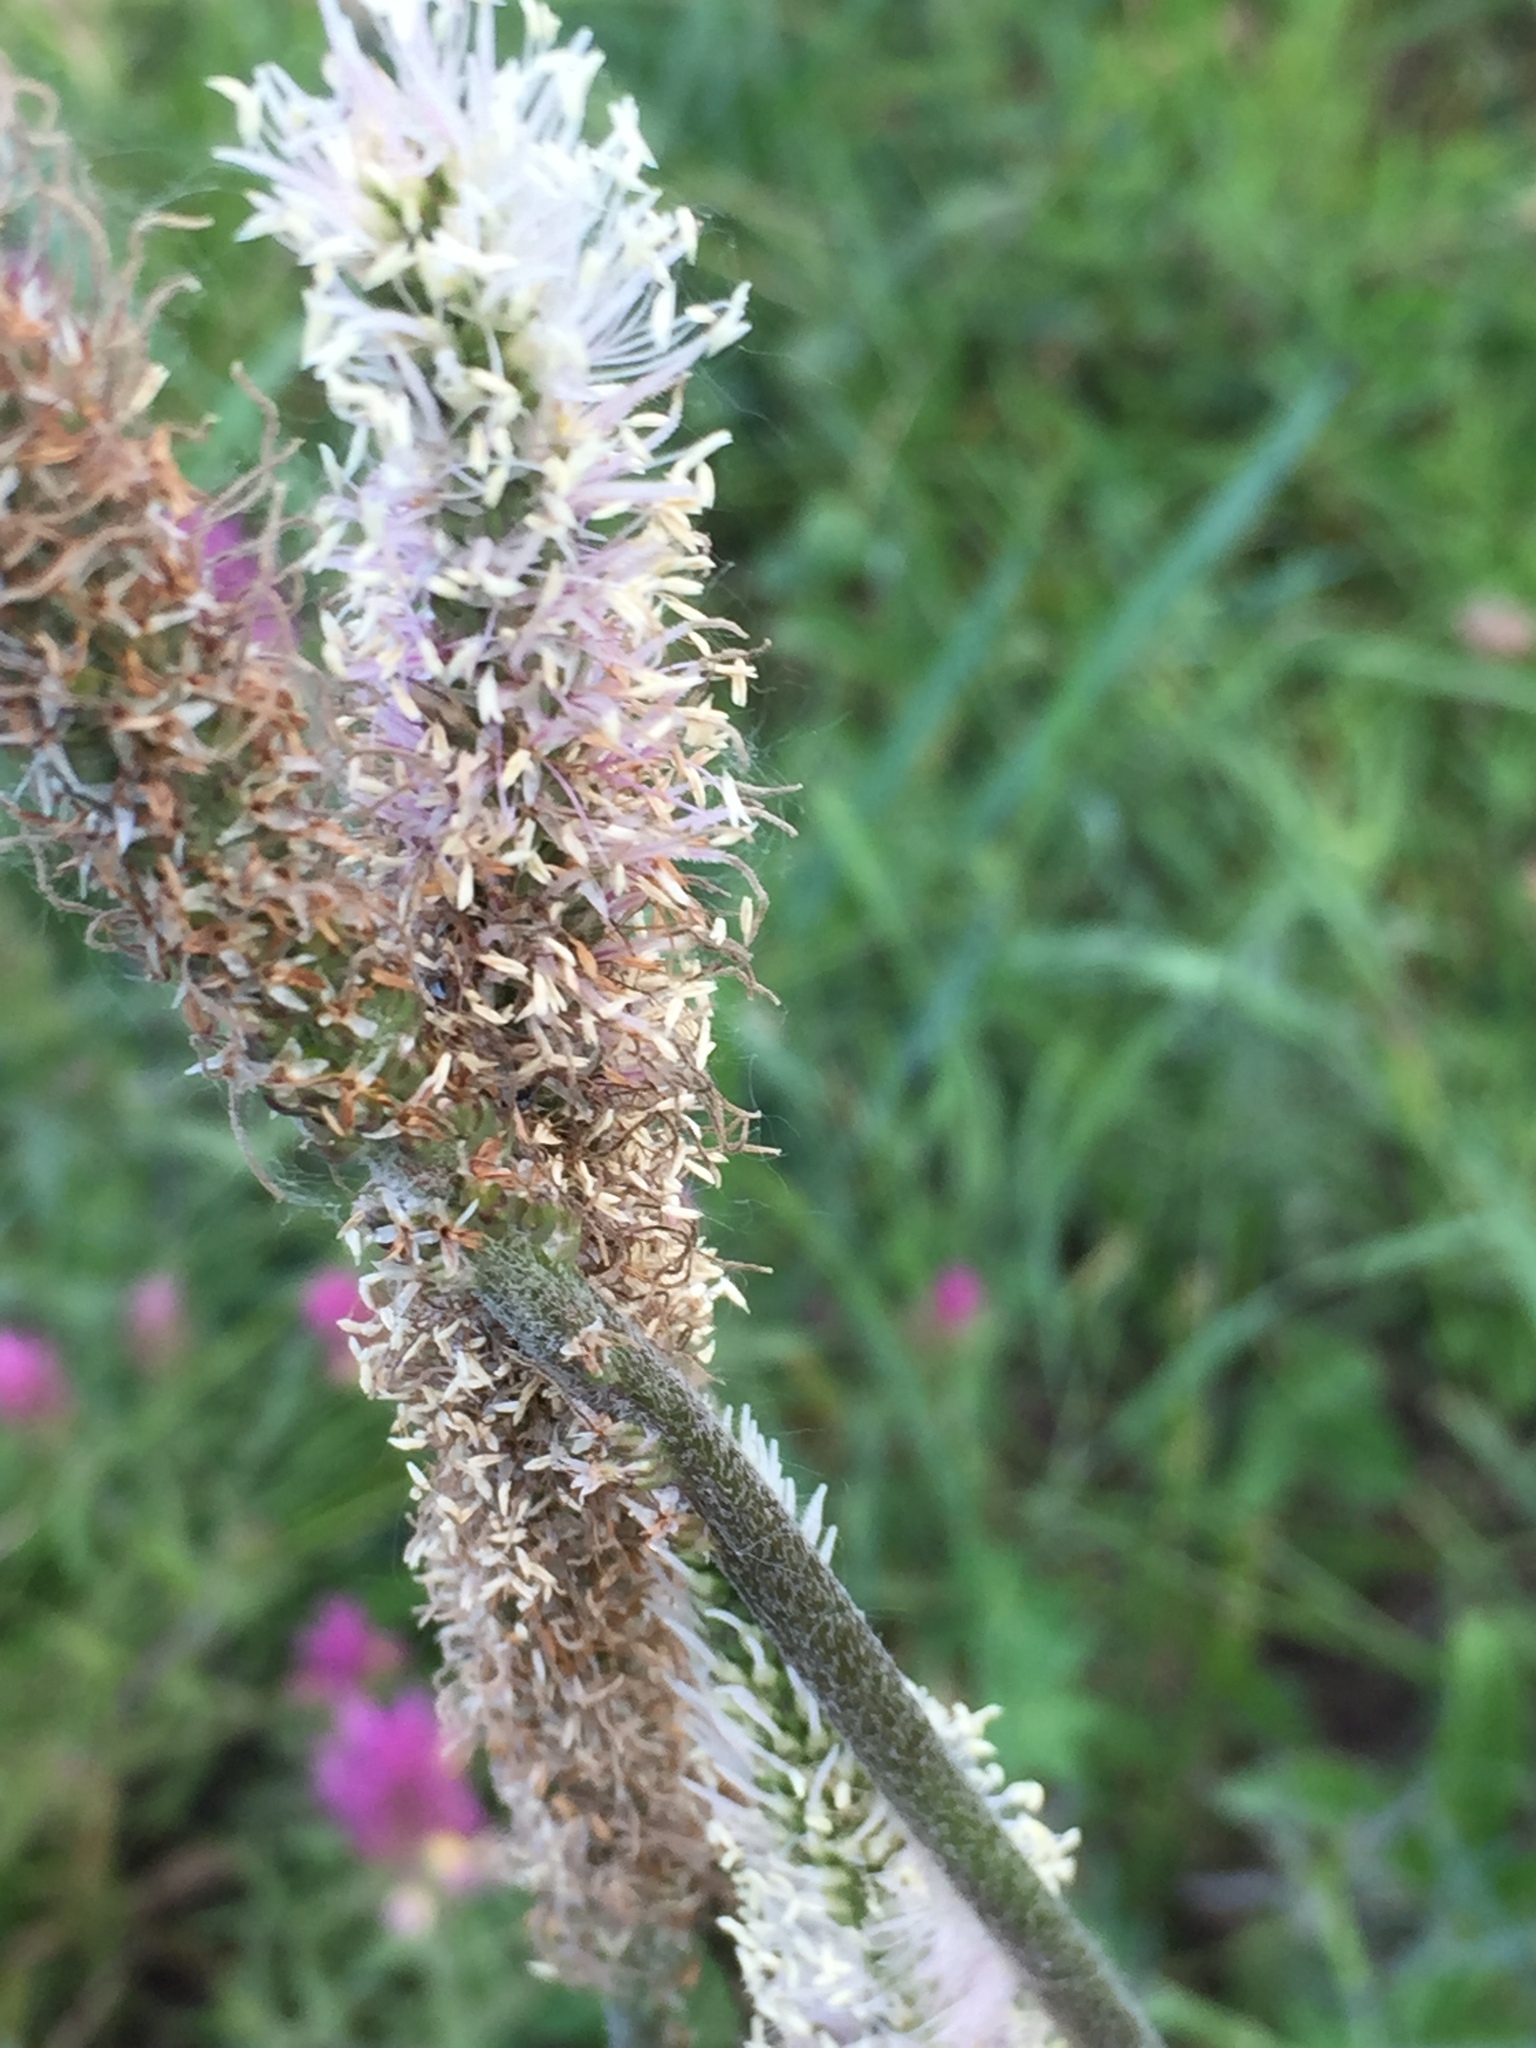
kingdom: Plantae
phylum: Tracheophyta
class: Magnoliopsida
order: Lamiales
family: Plantaginaceae
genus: Plantago
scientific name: Plantago urvillei
